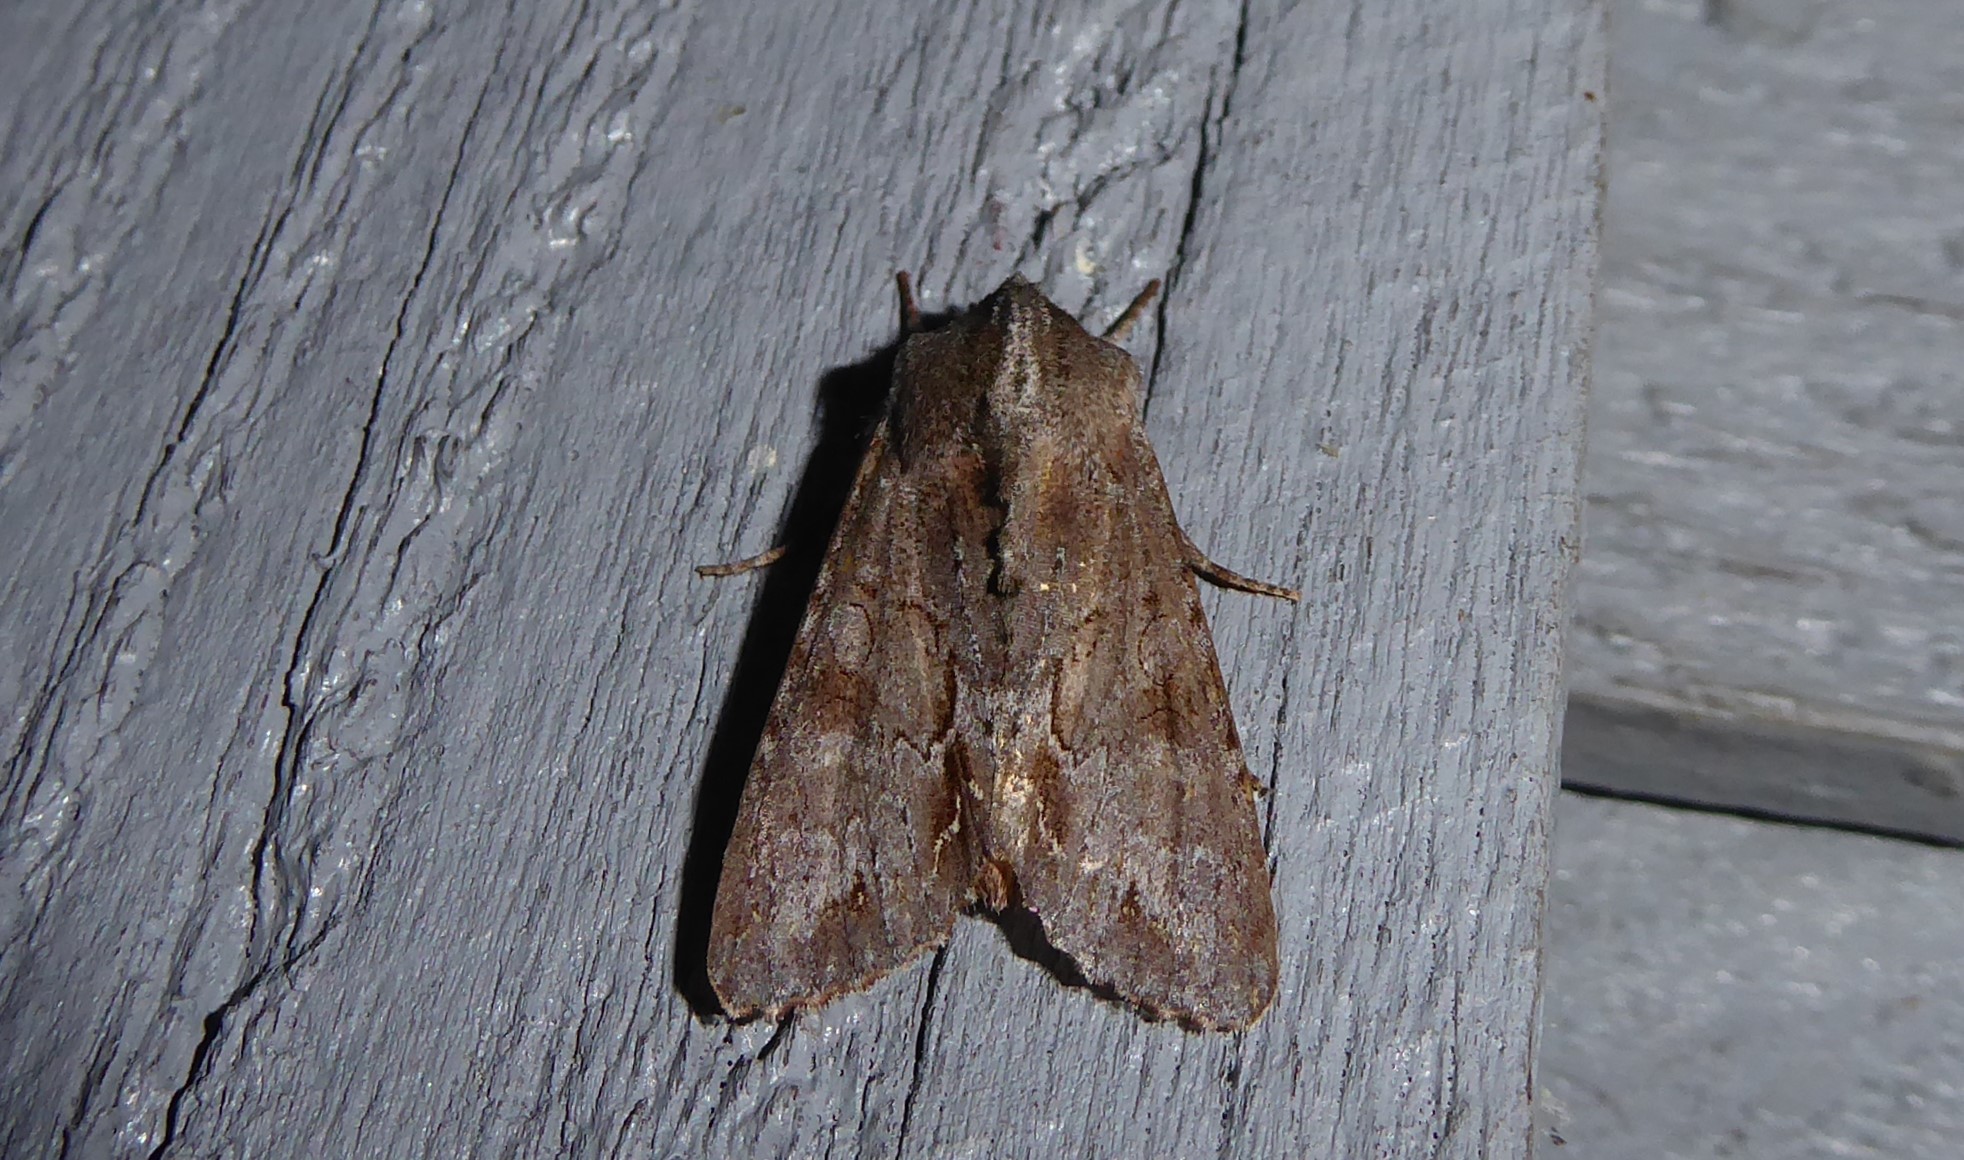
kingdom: Animalia
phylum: Arthropoda
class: Insecta
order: Lepidoptera
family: Noctuidae
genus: Ichneutica
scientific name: Ichneutica
